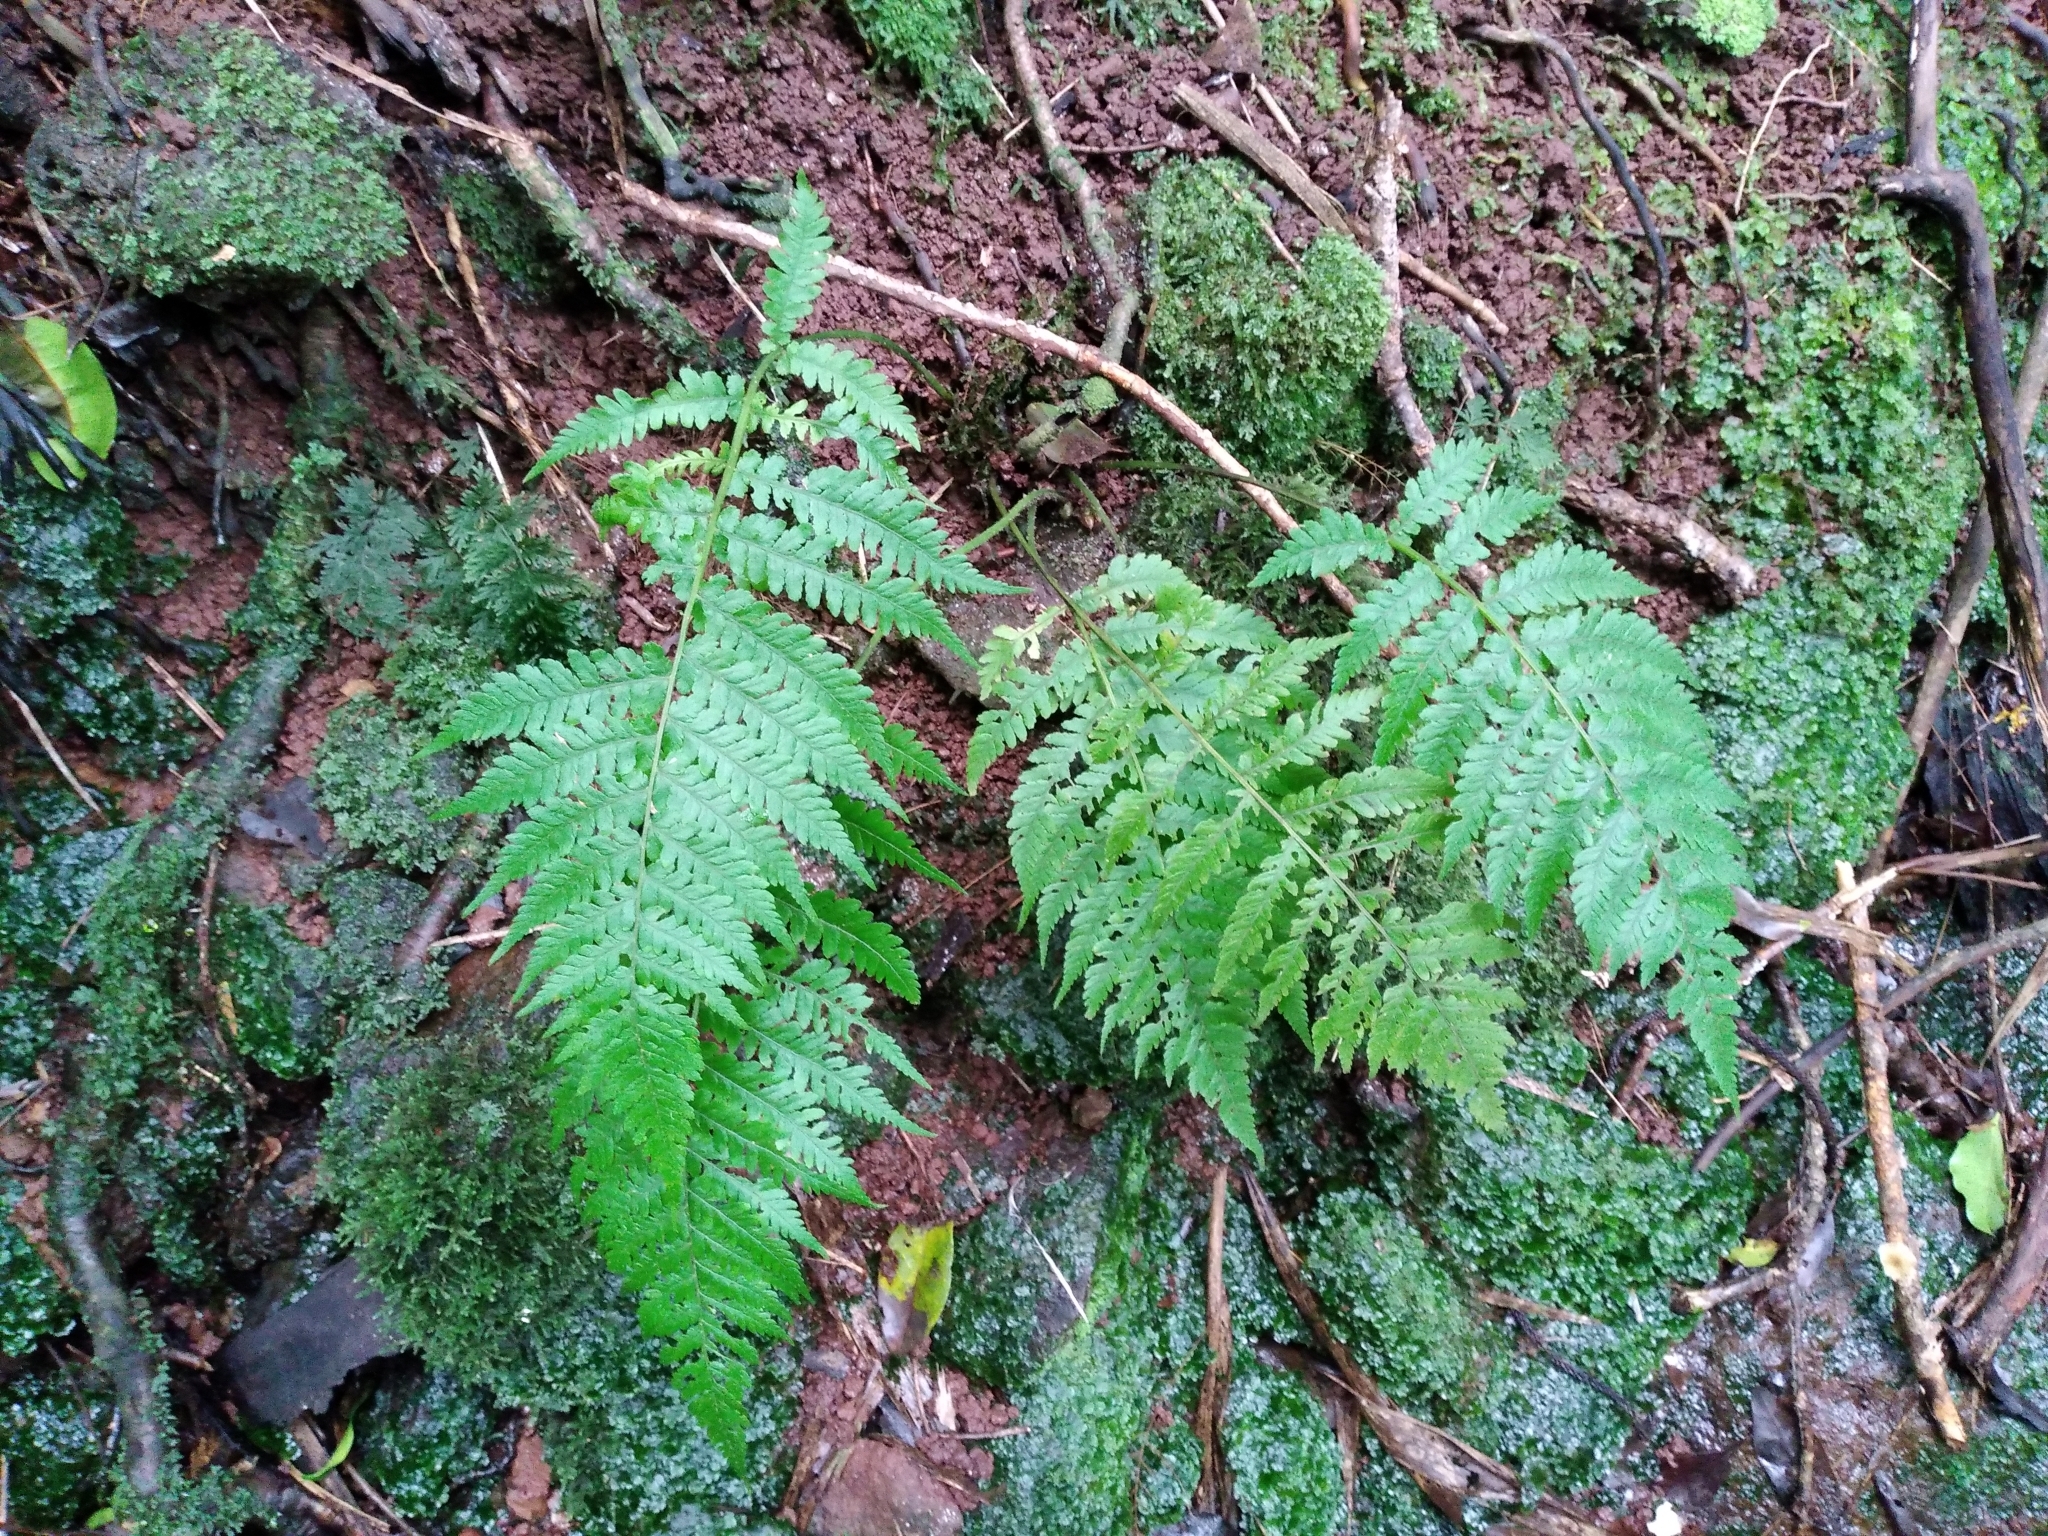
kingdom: Plantae
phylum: Tracheophyta
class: Polypodiopsida
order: Polypodiales
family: Athyriaceae
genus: Diplazium
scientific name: Diplazium congruum
